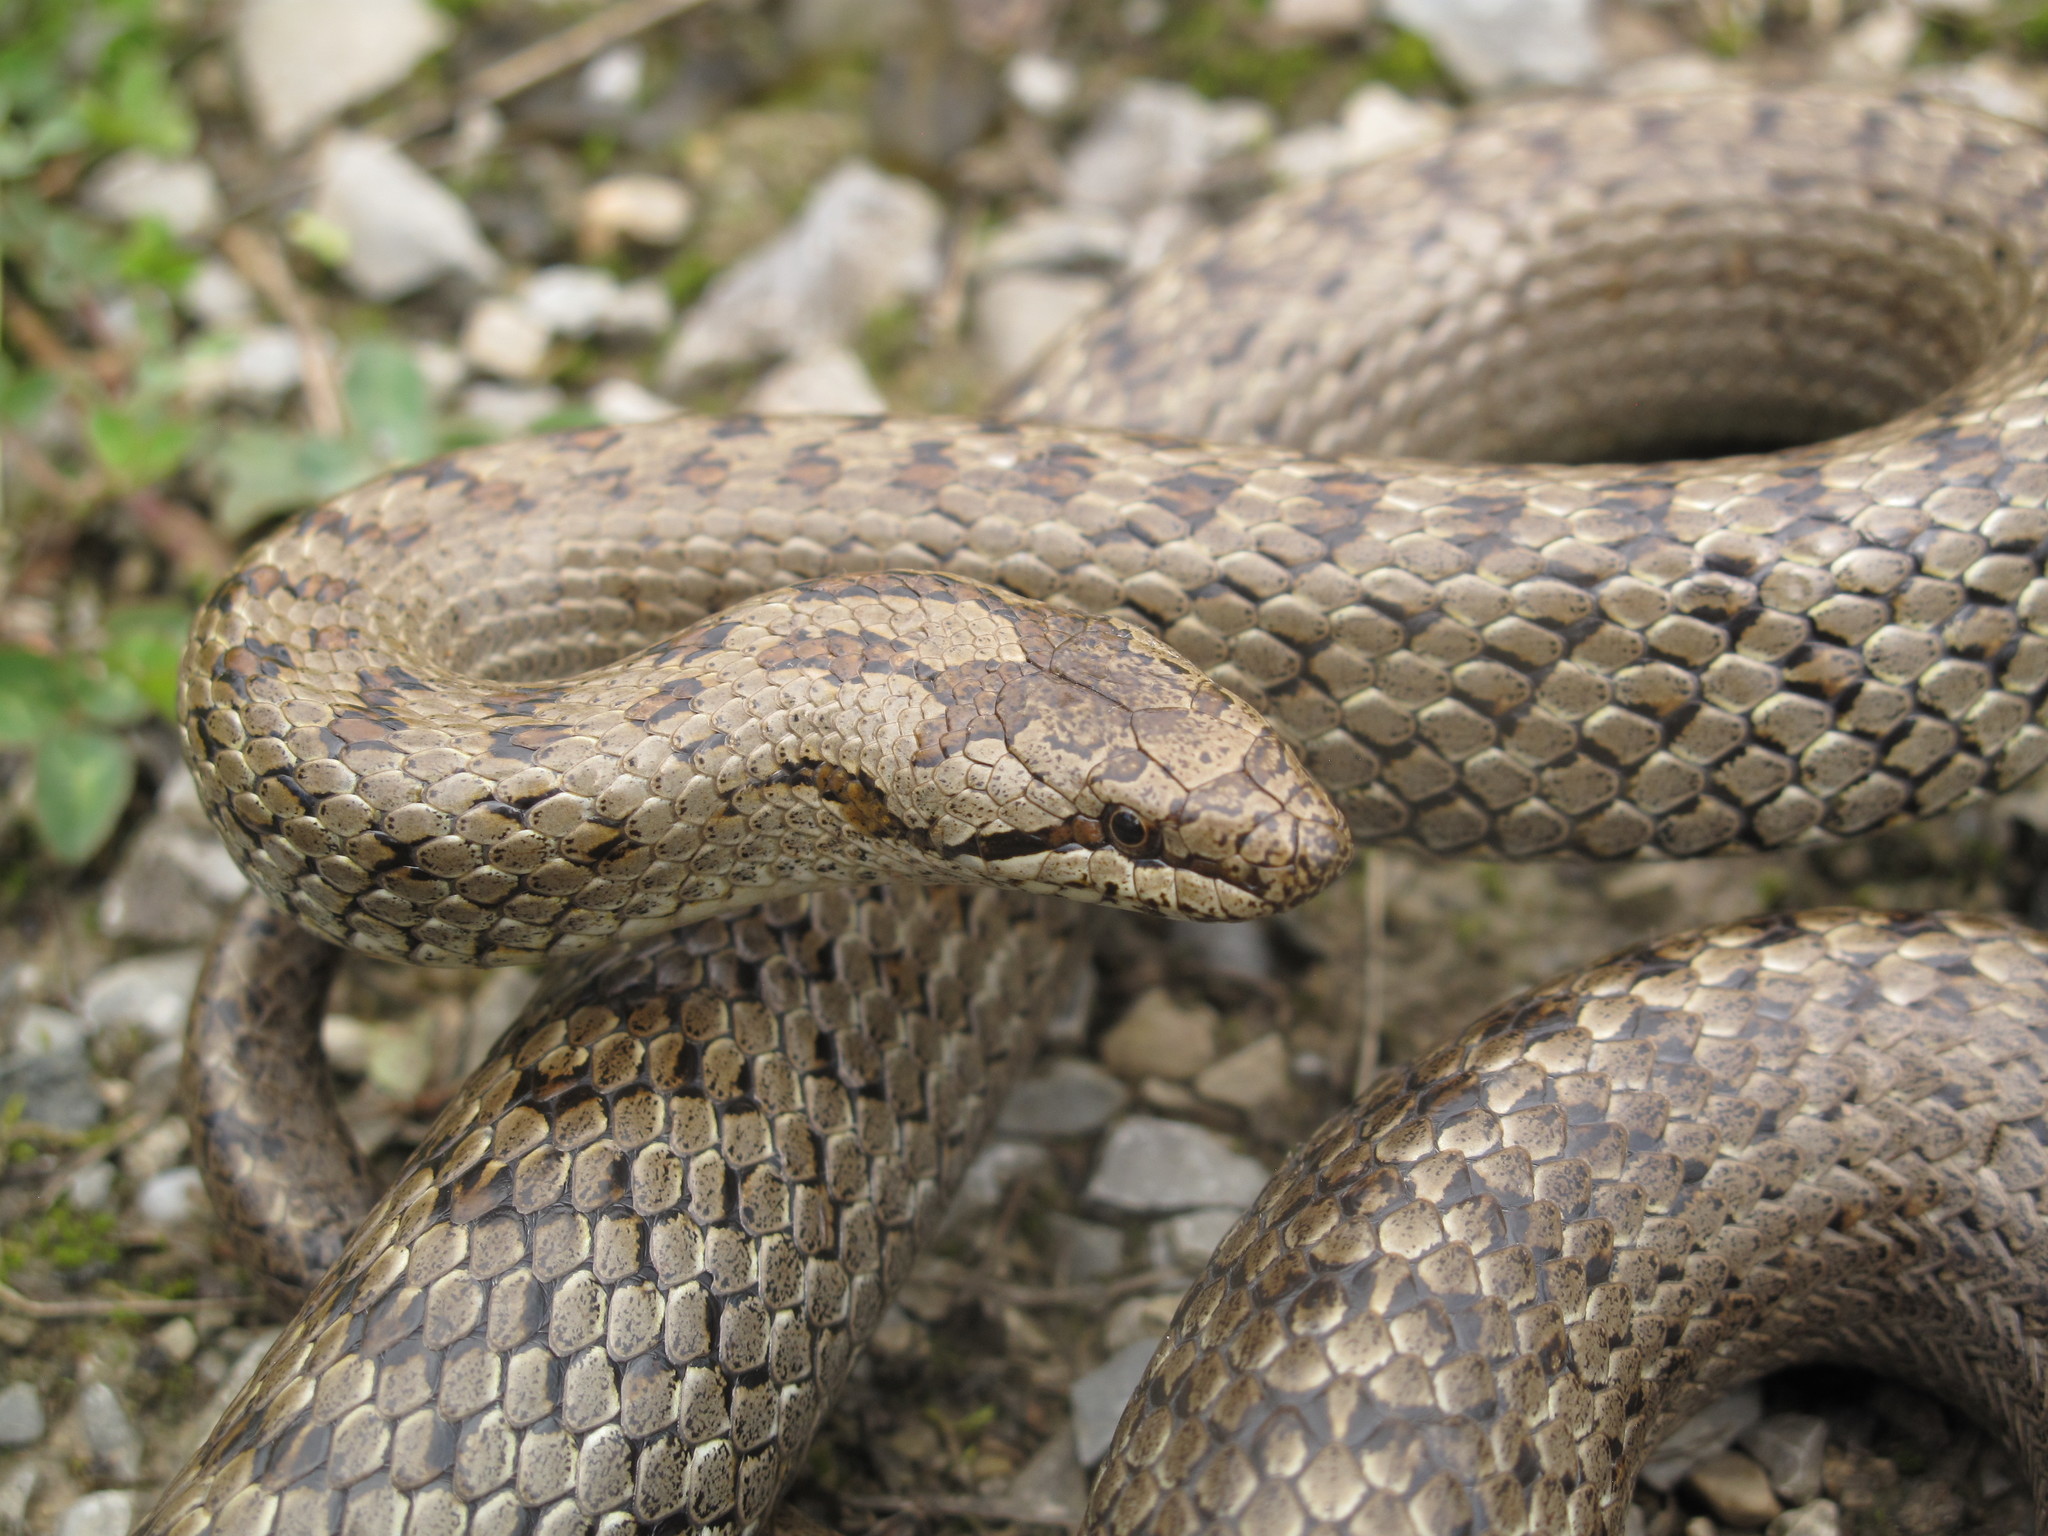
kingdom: Animalia
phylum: Chordata
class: Squamata
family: Colubridae
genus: Coronella
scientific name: Coronella austriaca
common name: Smooth snake
